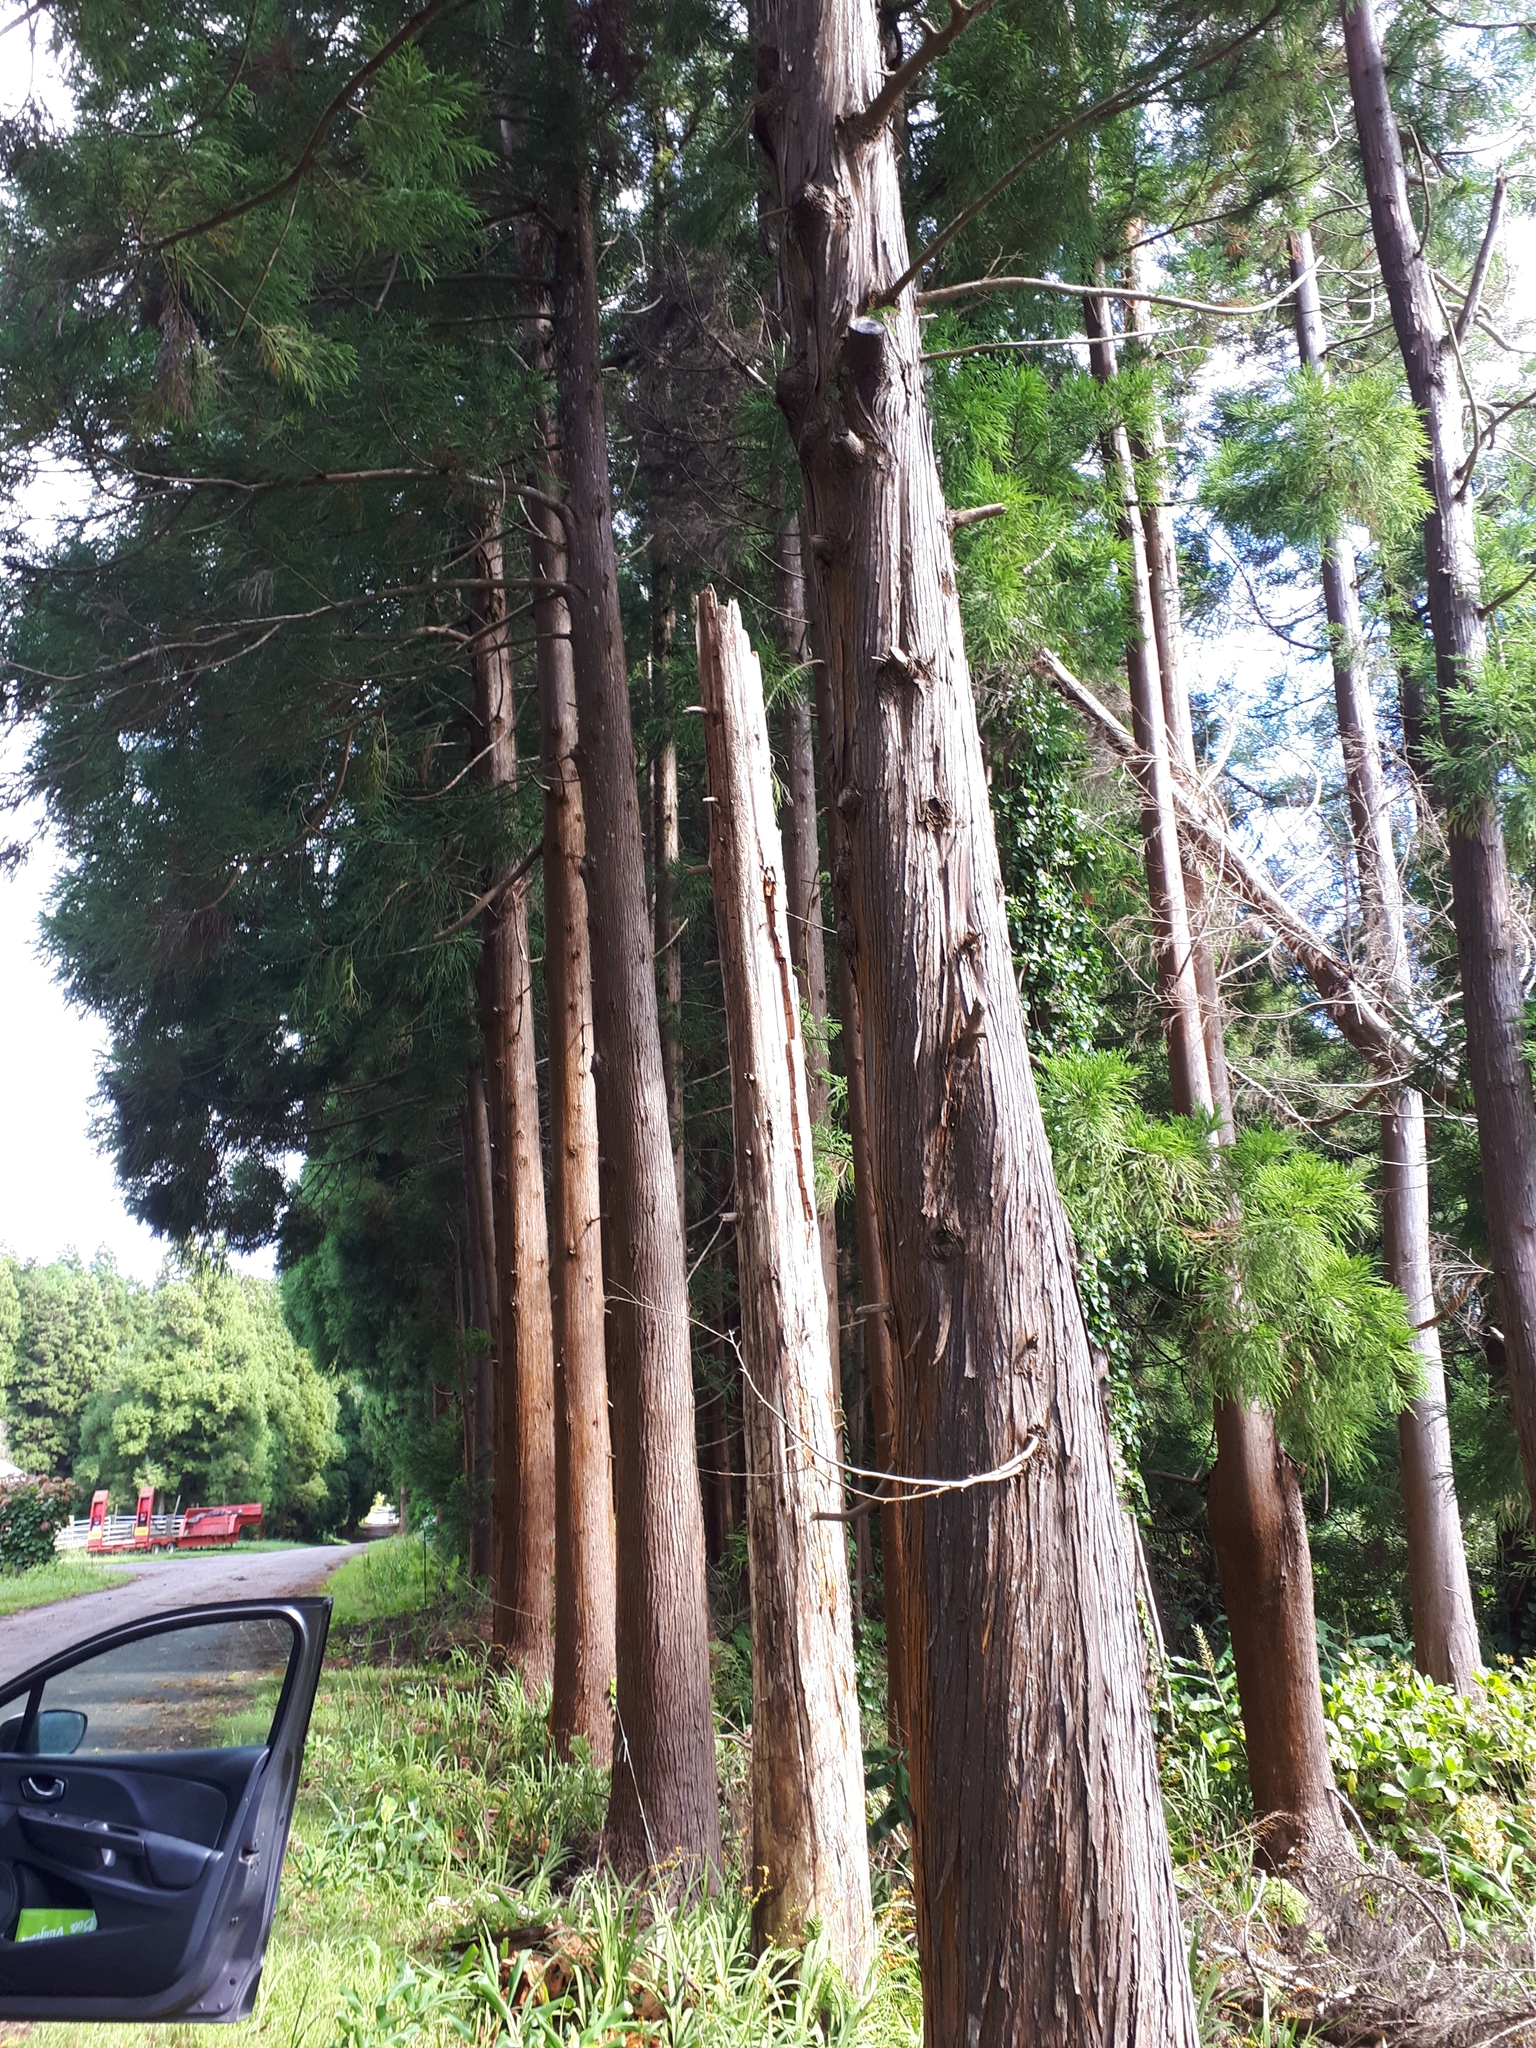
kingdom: Plantae
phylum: Tracheophyta
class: Pinopsida
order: Pinales
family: Cupressaceae
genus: Cryptomeria
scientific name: Cryptomeria japonica
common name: Japanese cedar
